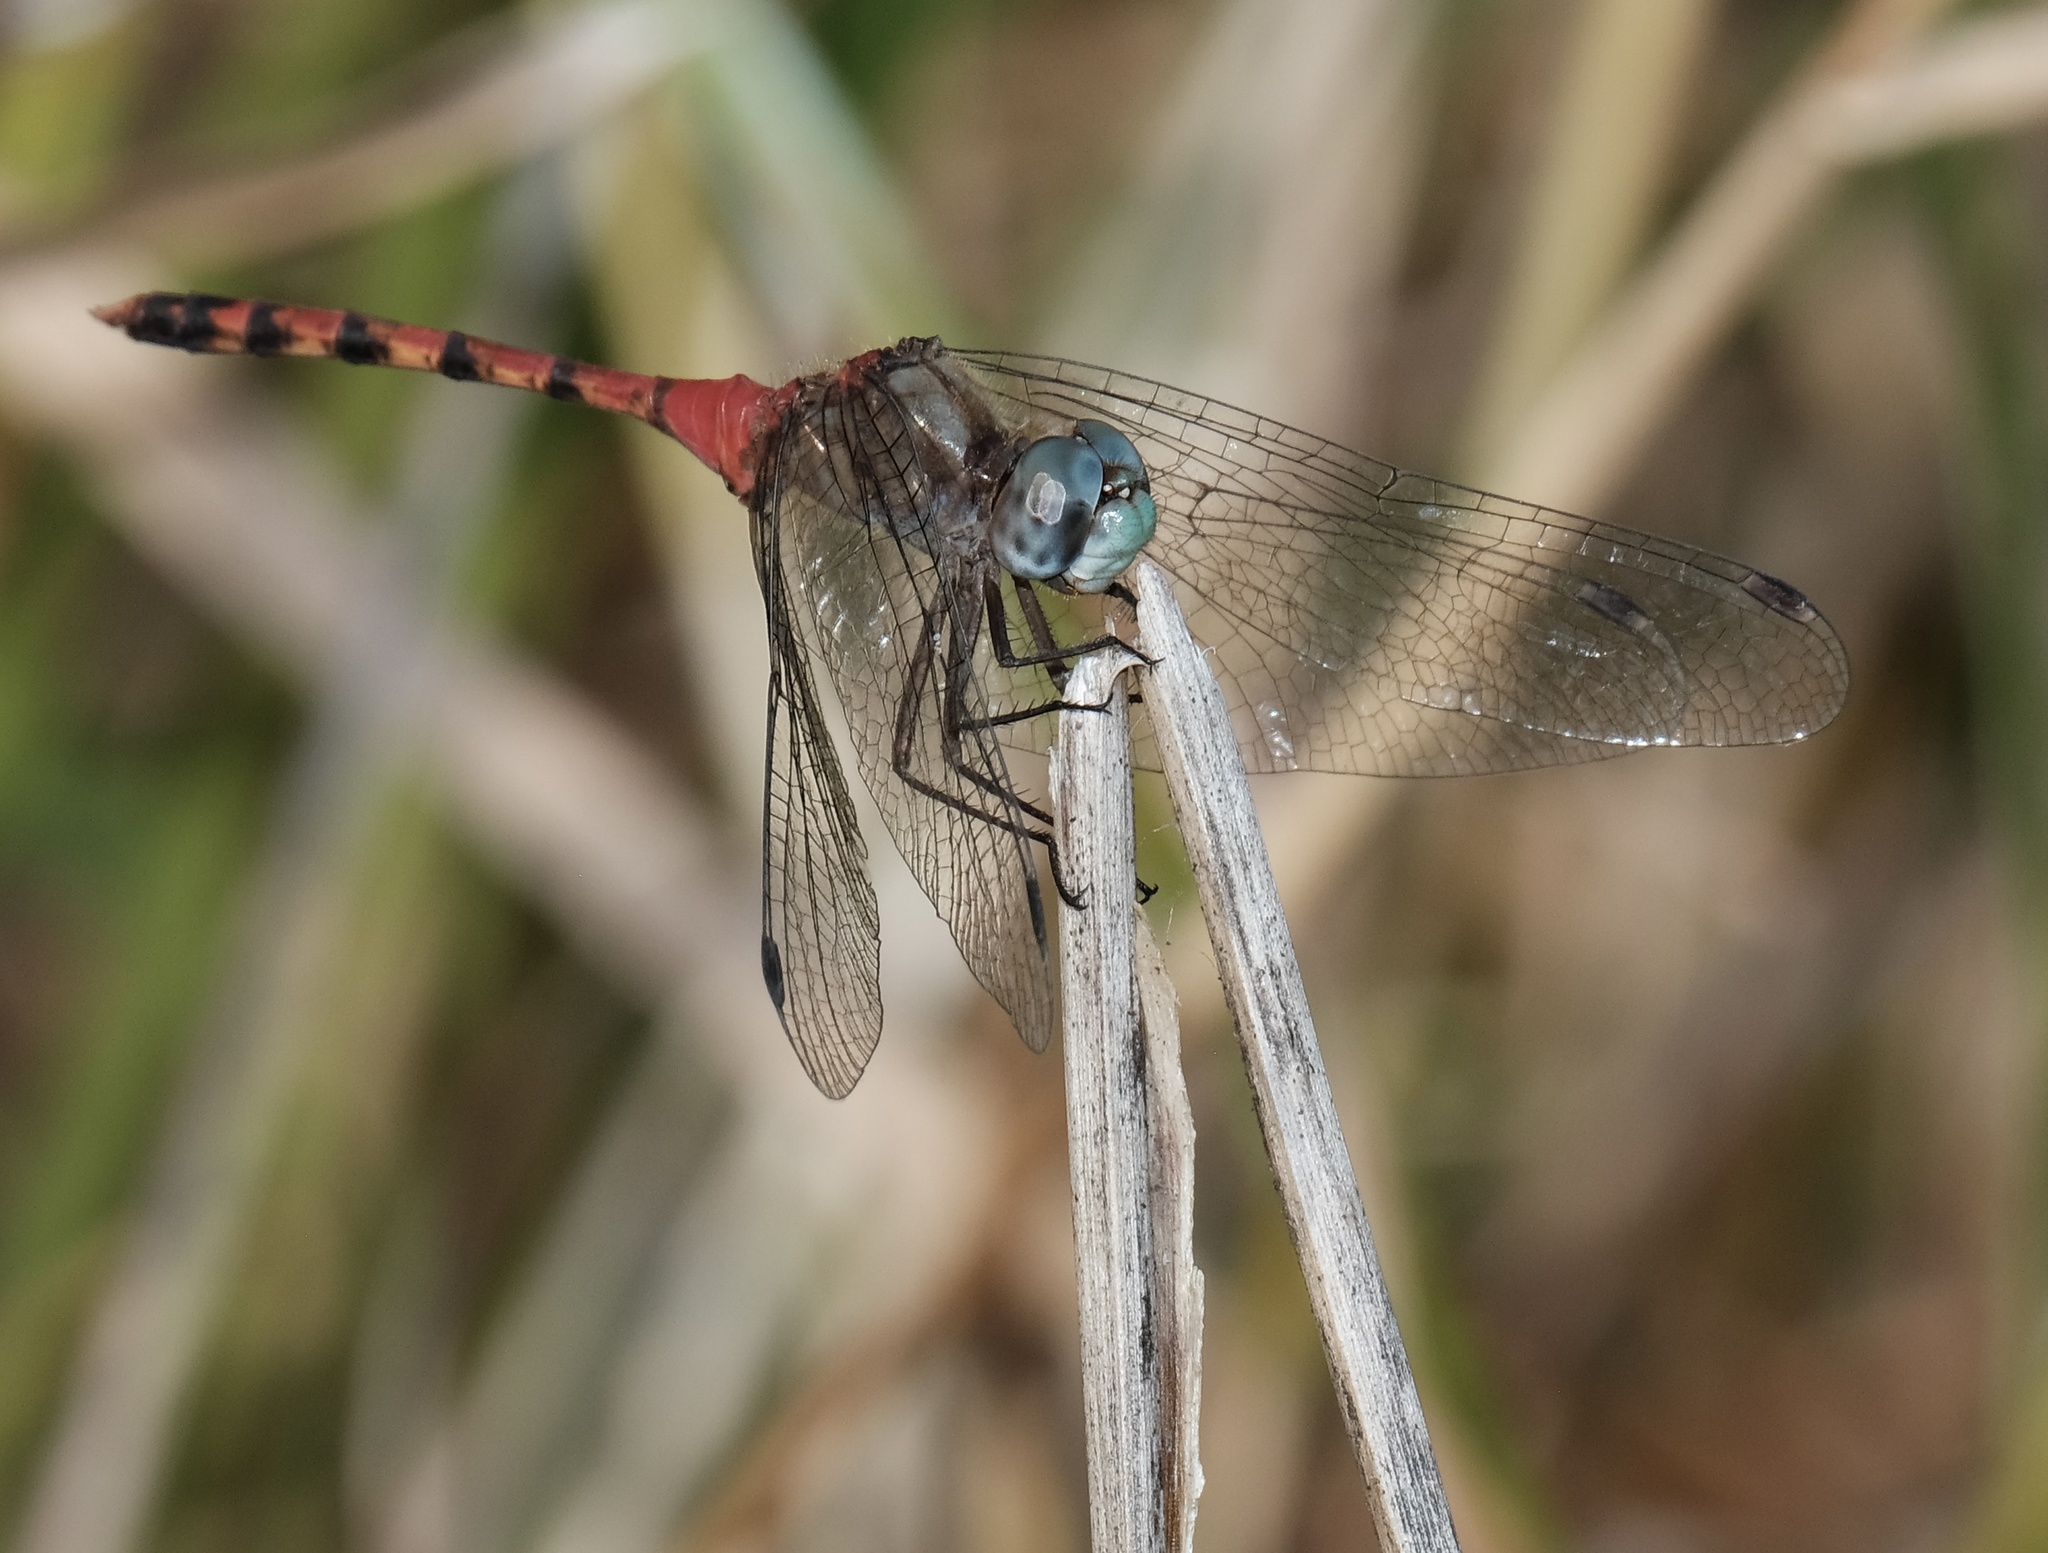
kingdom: Animalia
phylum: Arthropoda
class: Insecta
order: Odonata
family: Libellulidae
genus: Sympetrum
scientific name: Sympetrum ambiguum
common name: Blue-faced meadowhawk
